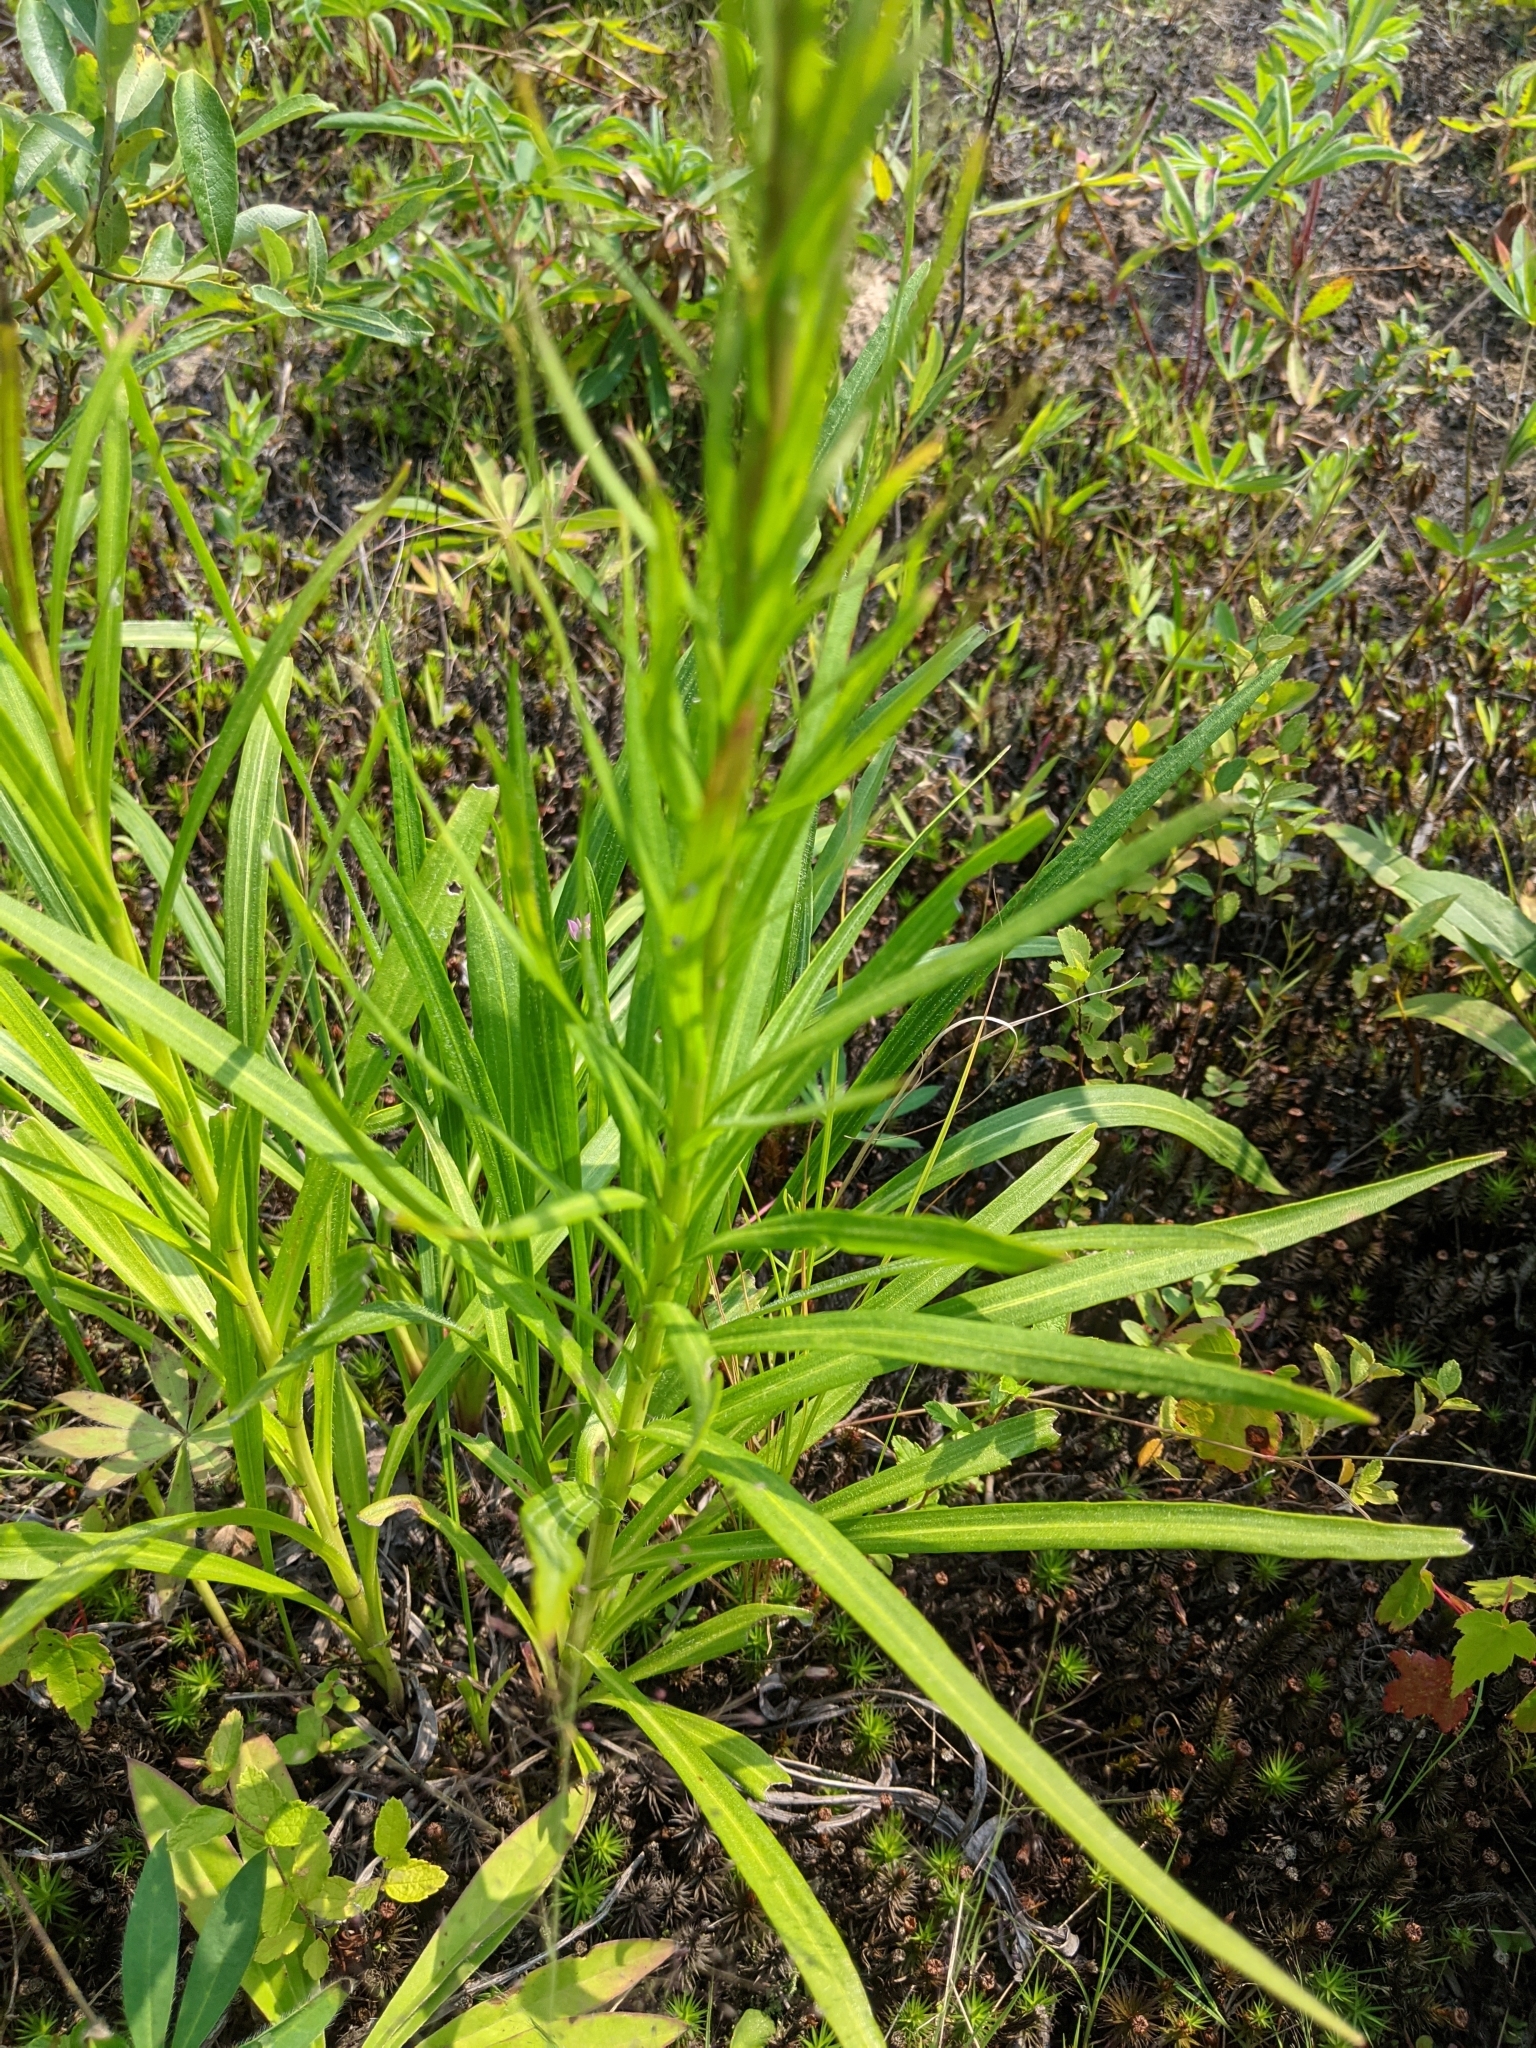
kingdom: Plantae
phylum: Tracheophyta
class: Magnoliopsida
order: Asterales
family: Asteraceae
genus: Liatris
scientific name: Liatris spicata
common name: Florist gayfeather
